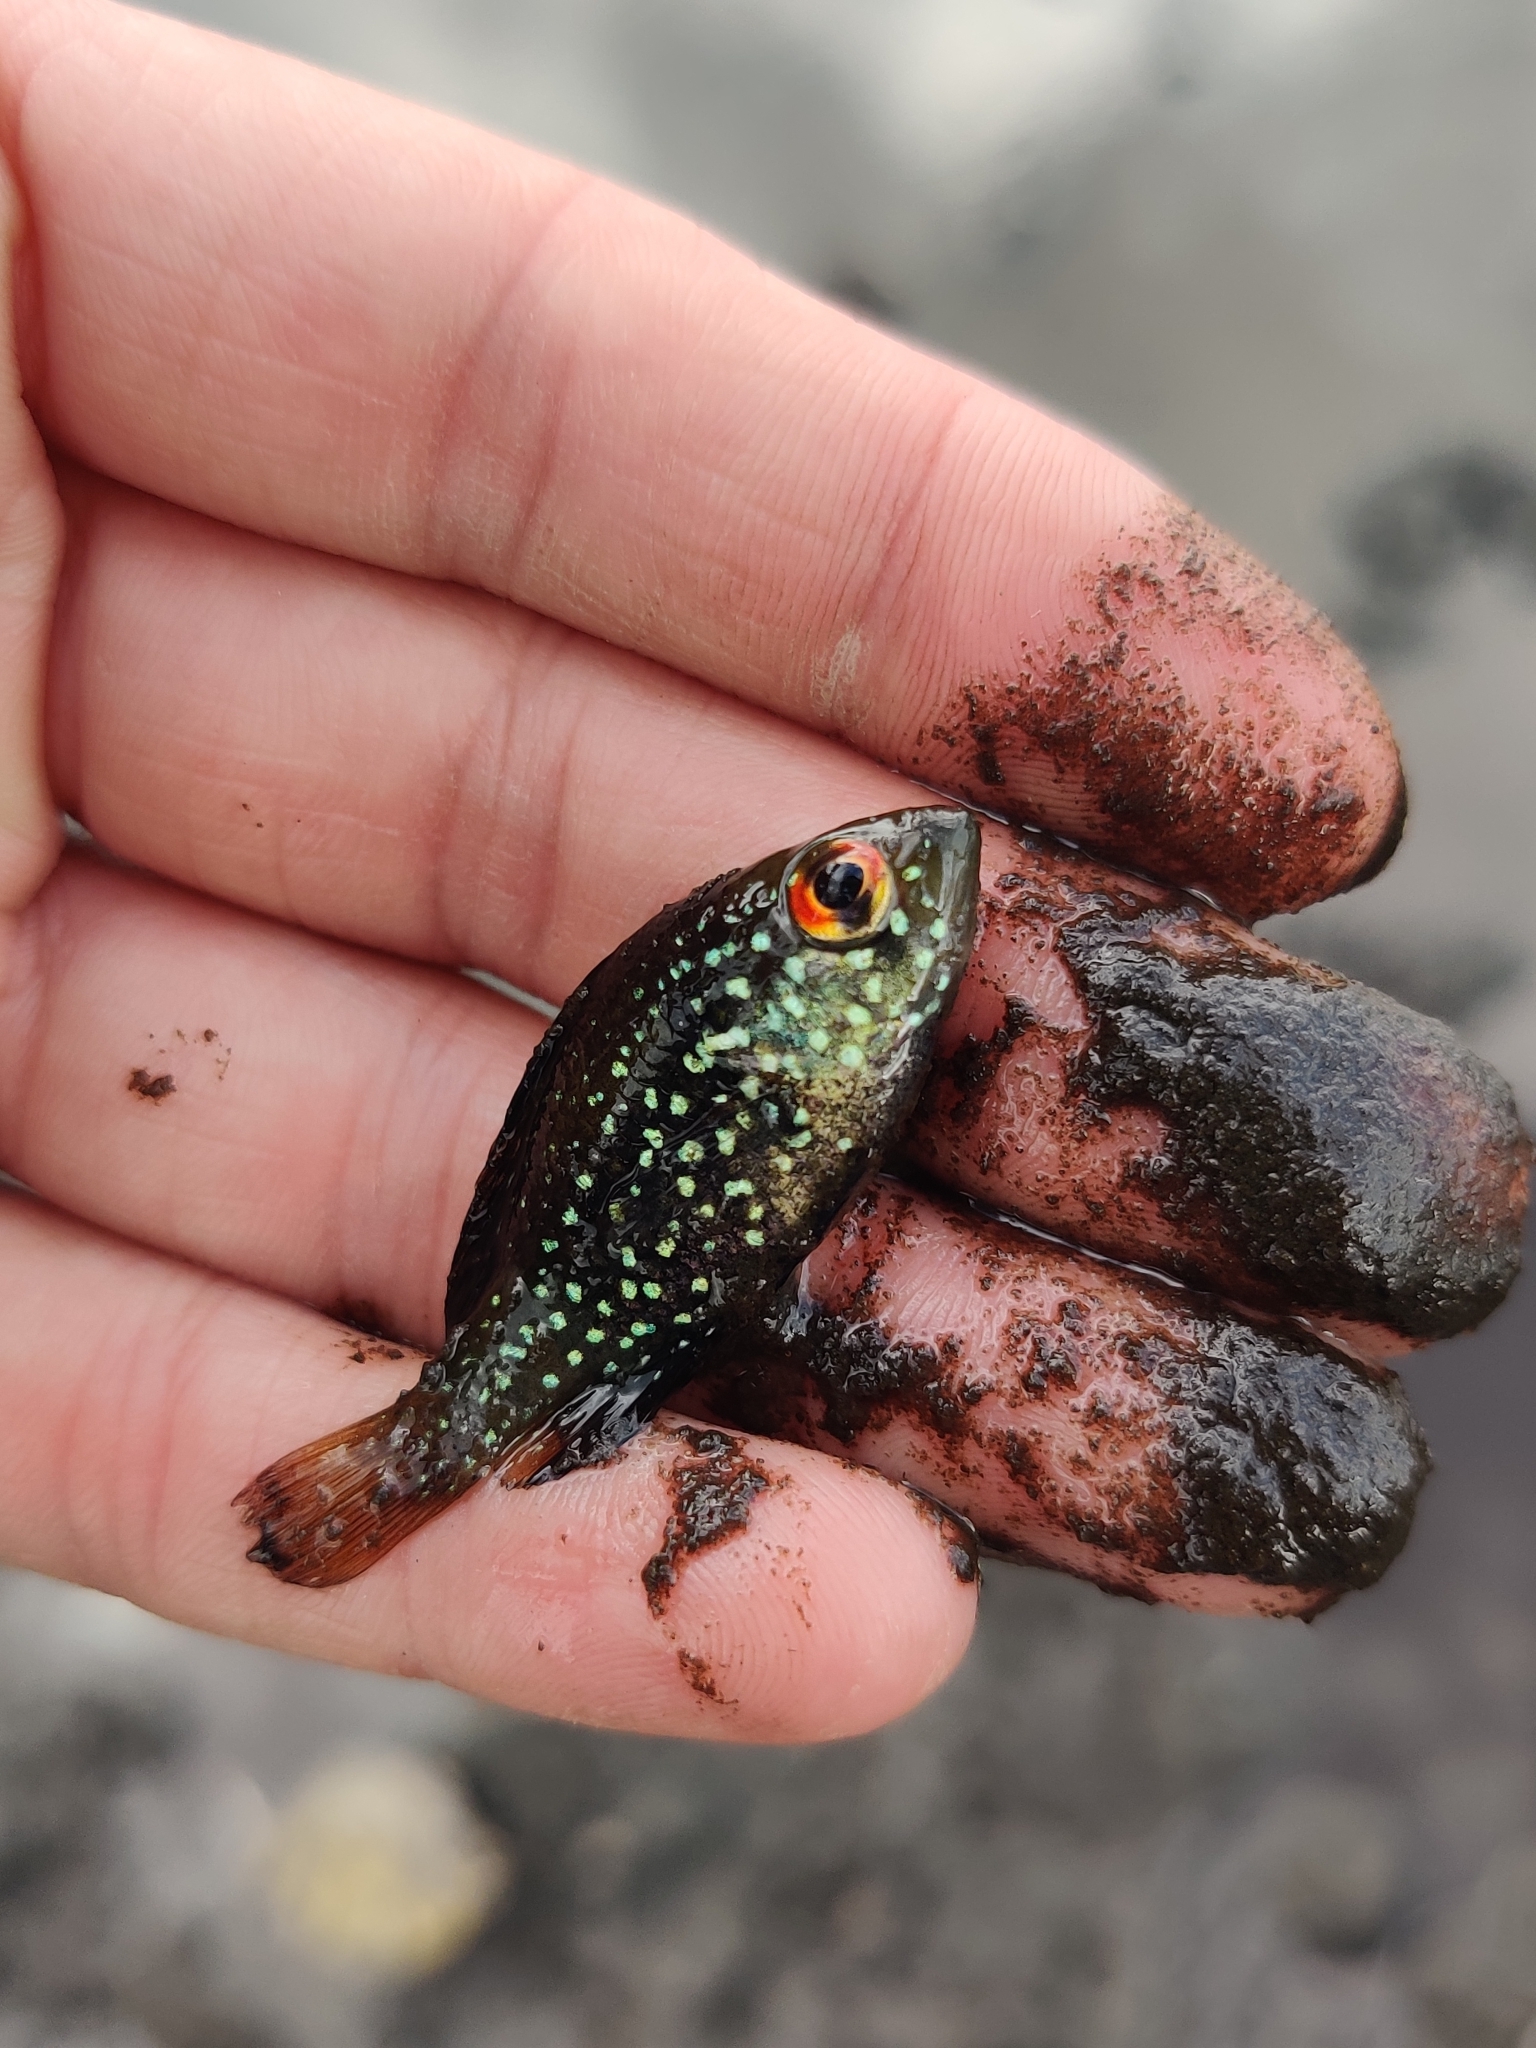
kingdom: Animalia
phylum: Chordata
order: Perciformes
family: Centrarchidae
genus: Enneacanthus
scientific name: Enneacanthus gloriosus
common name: Bluespotted sunfish
